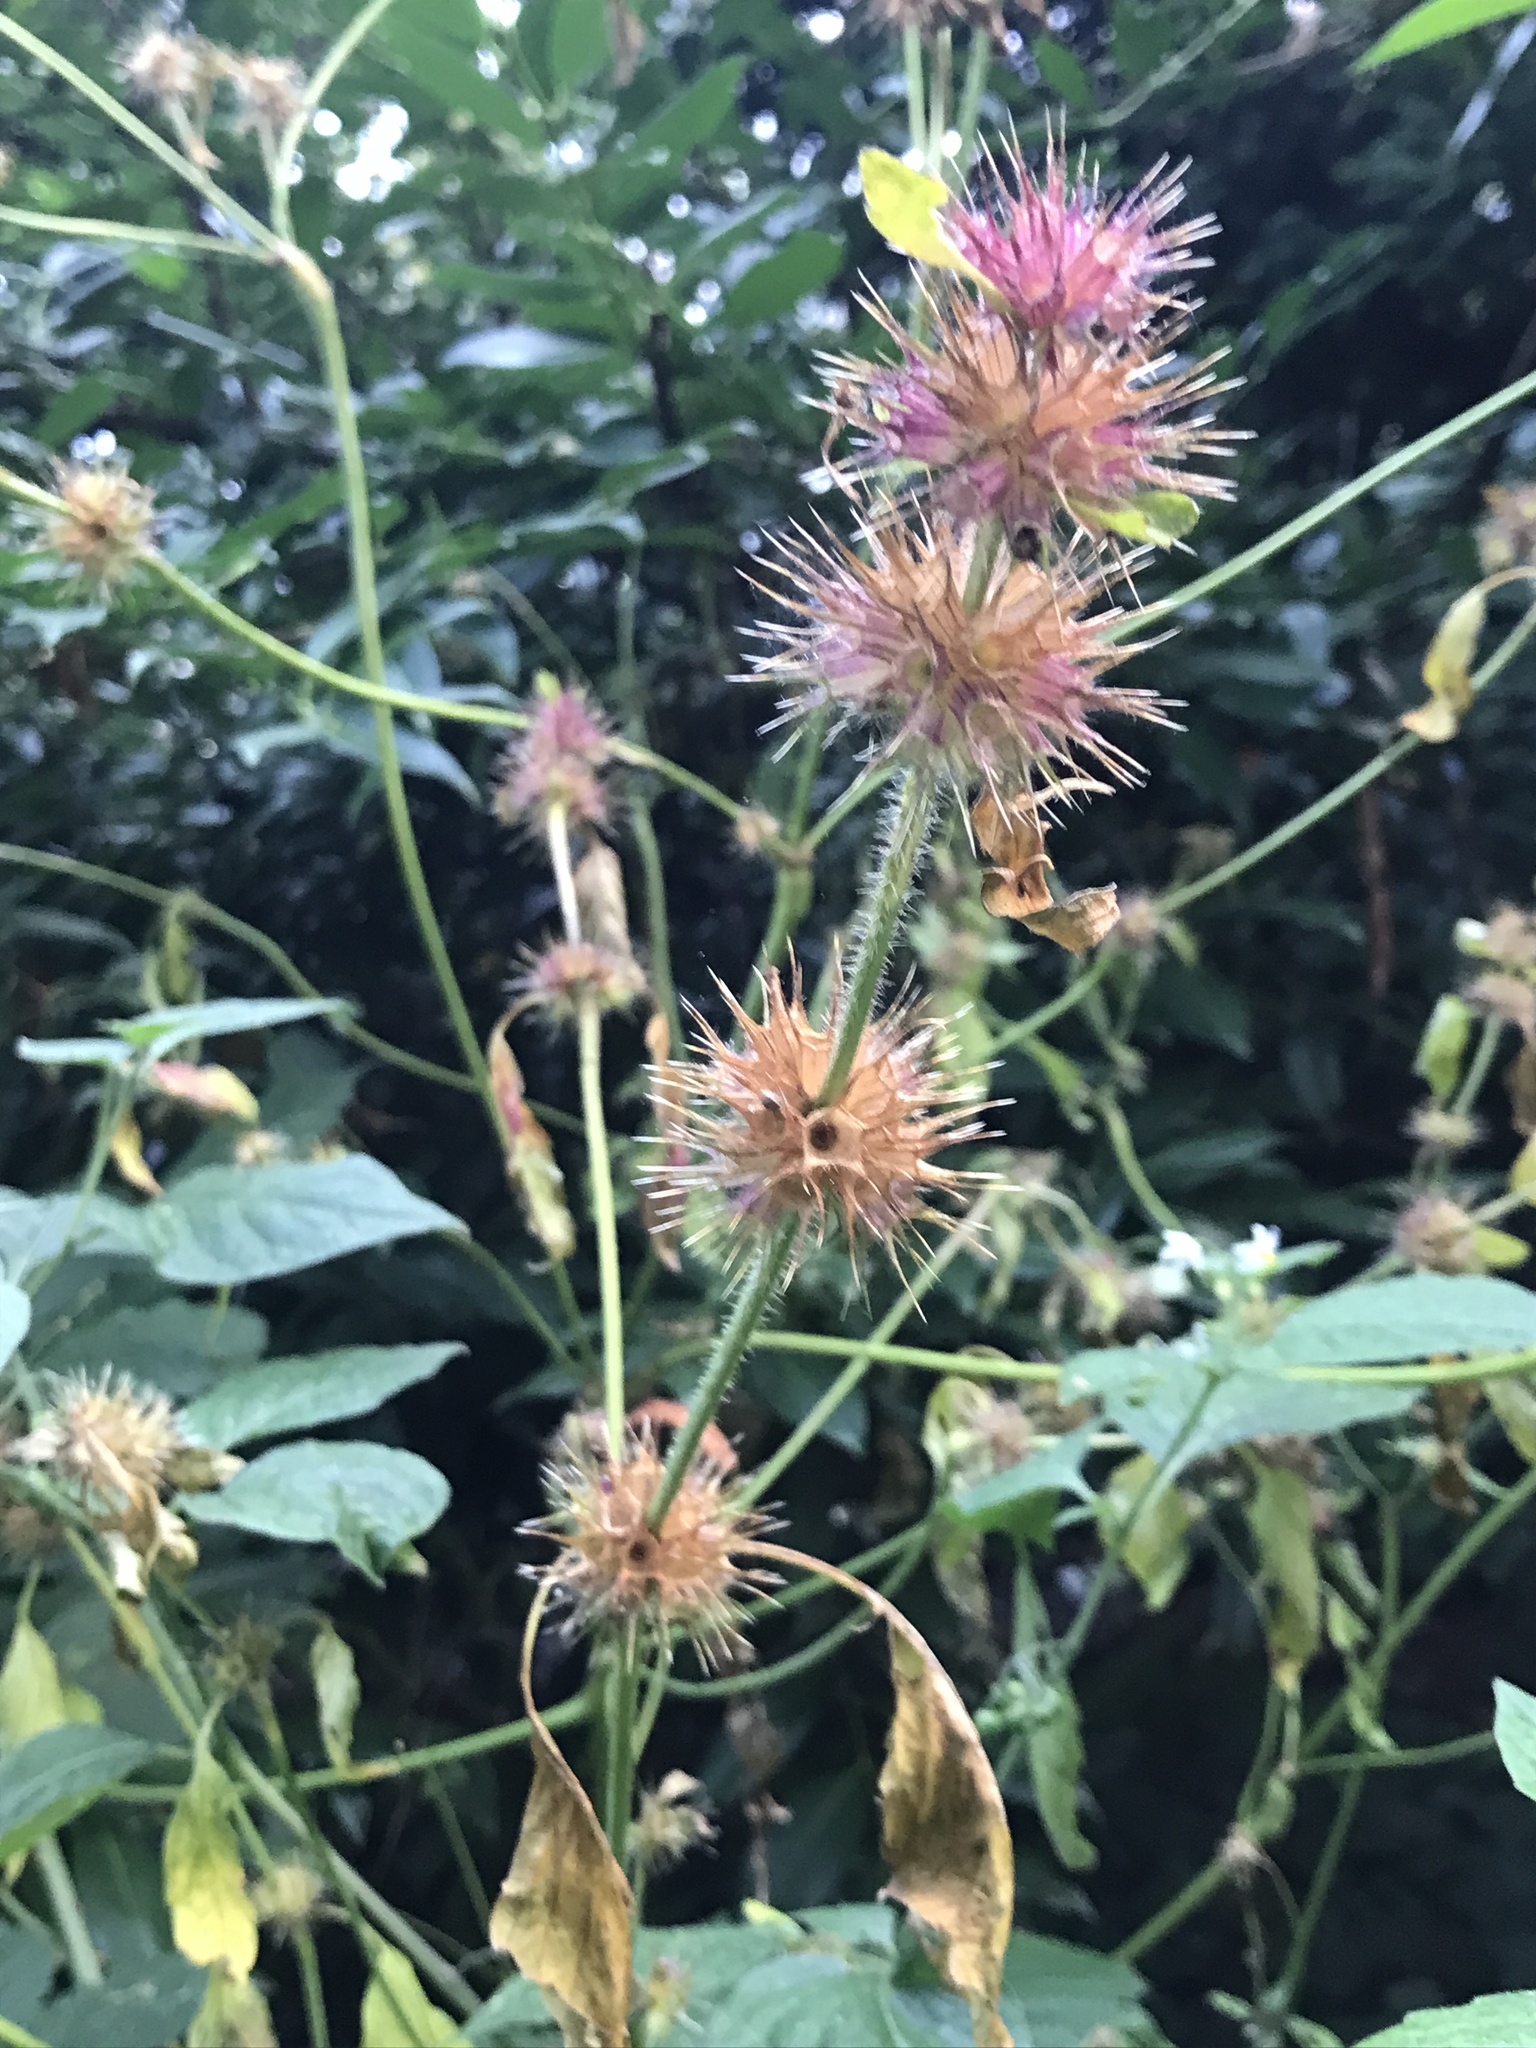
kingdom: Plantae
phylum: Tracheophyta
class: Magnoliopsida
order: Lamiales
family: Lamiaceae
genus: Galeopsis
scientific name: Galeopsis tetrahit
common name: Common hemp-nettle
